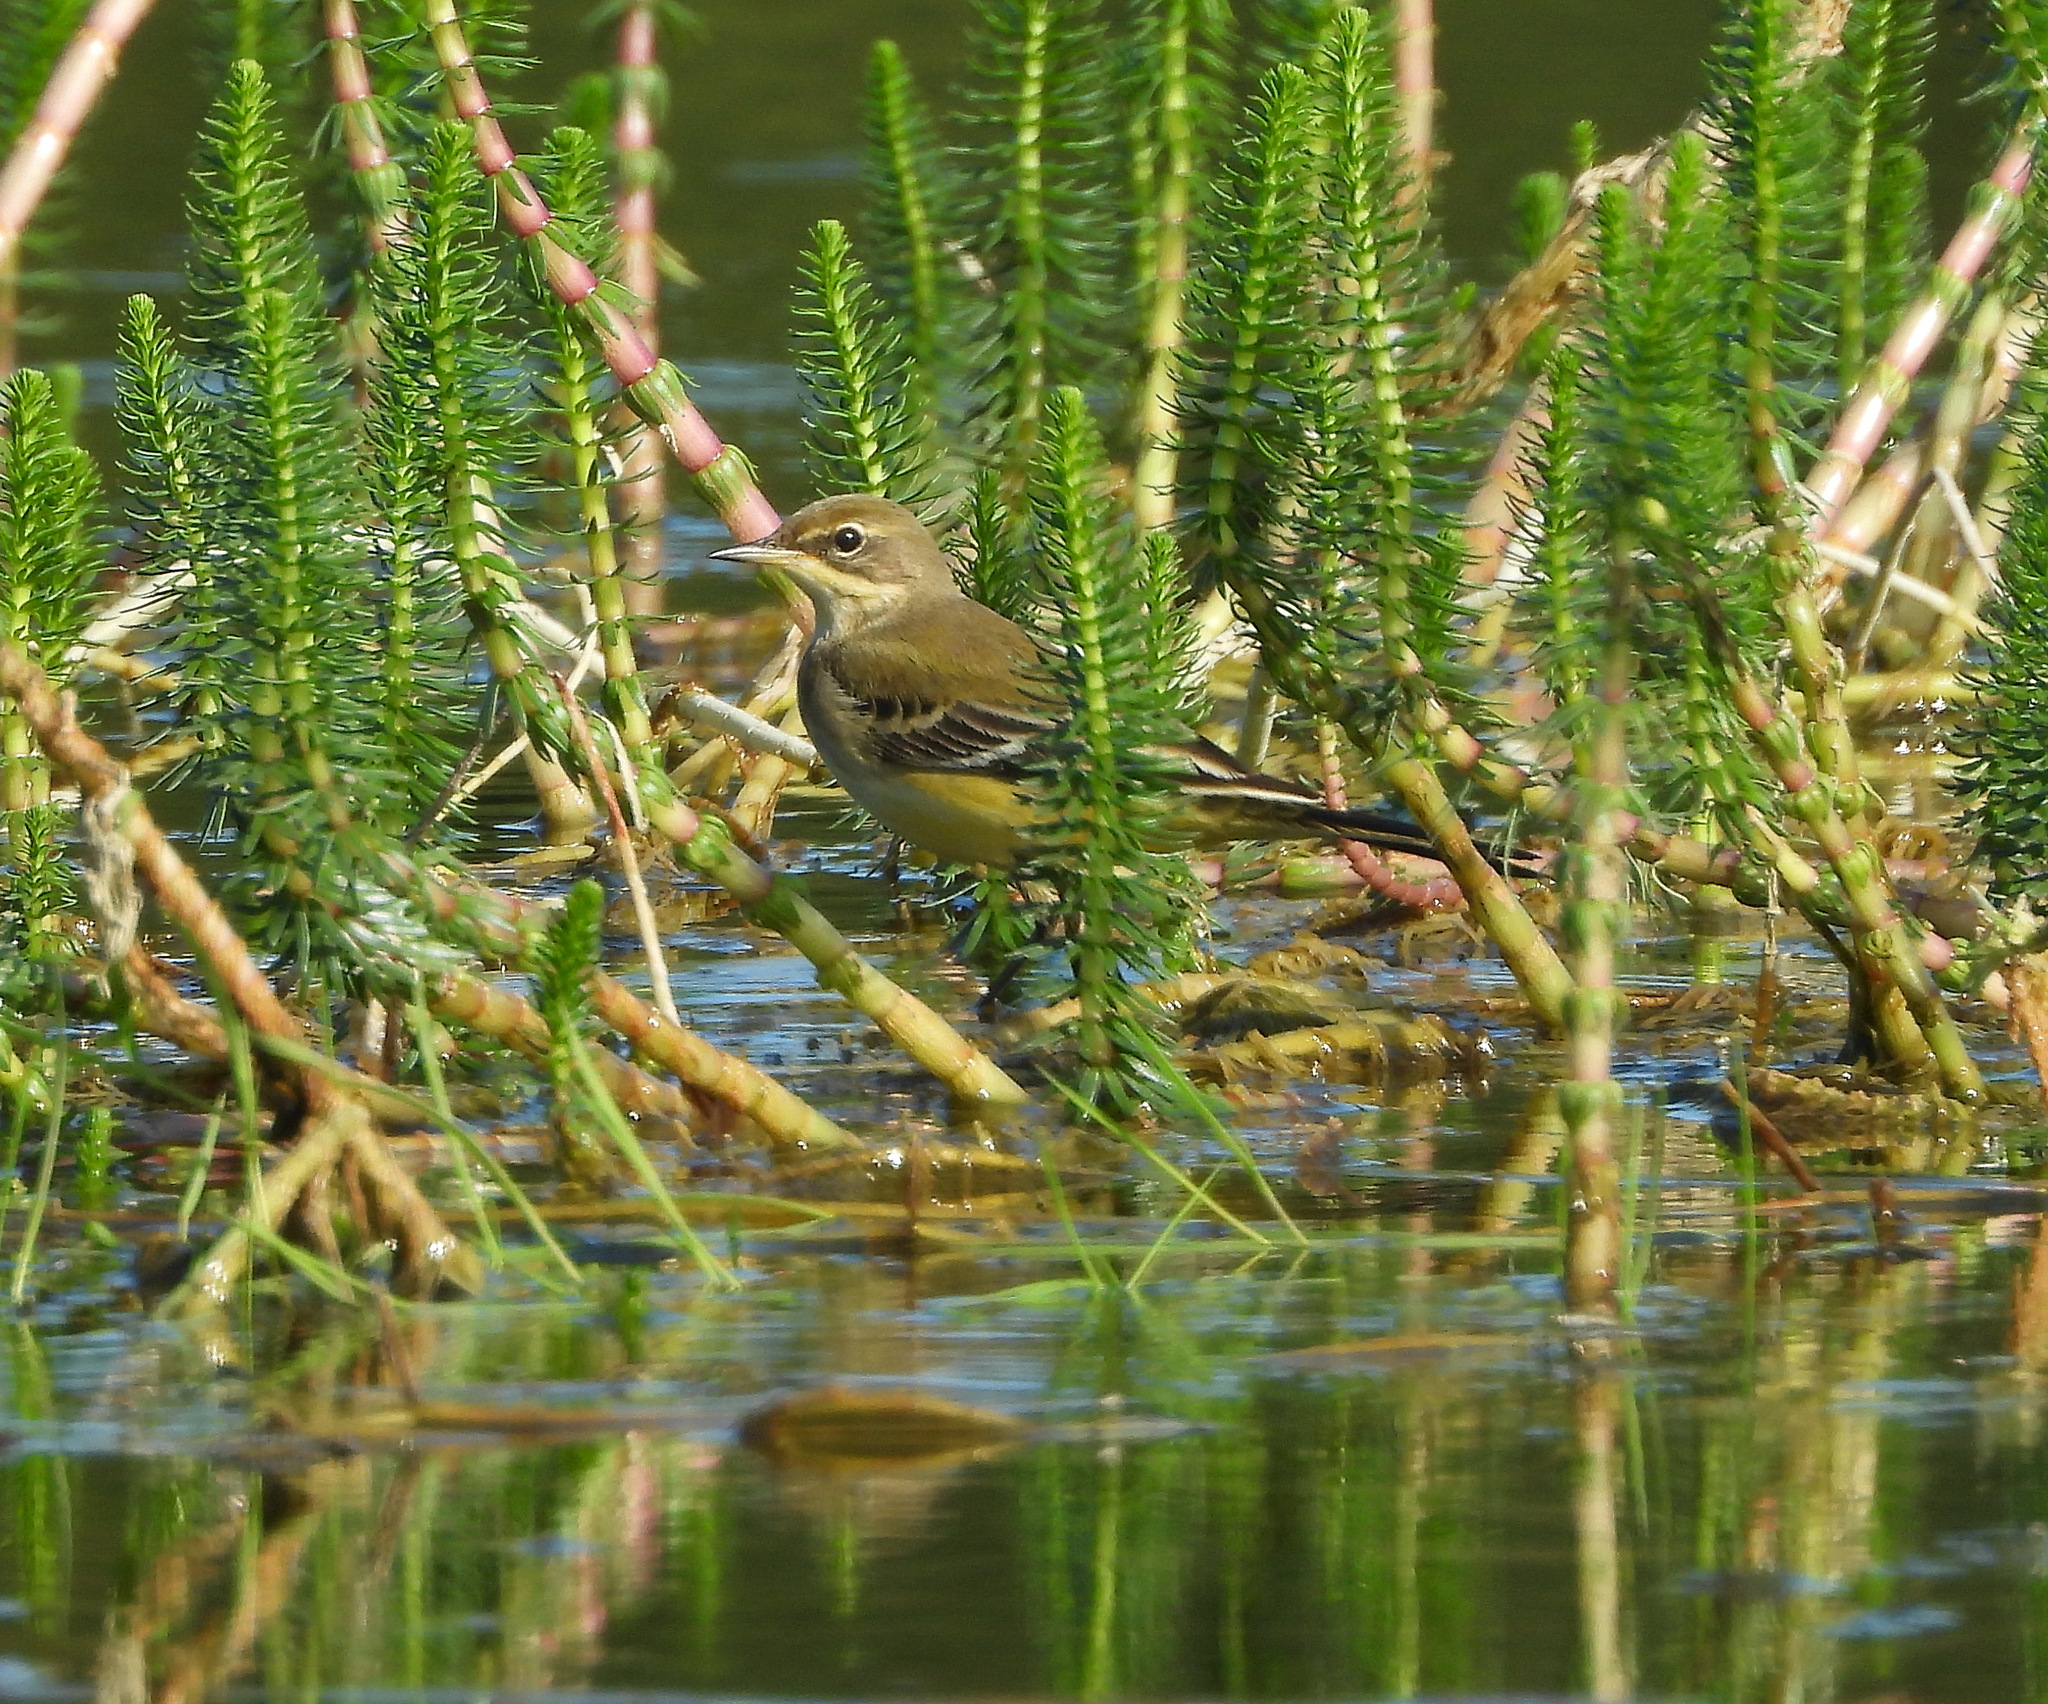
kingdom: Animalia
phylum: Chordata
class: Aves
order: Passeriformes
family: Motacillidae
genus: Motacilla
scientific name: Motacilla flava
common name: Western yellow wagtail
